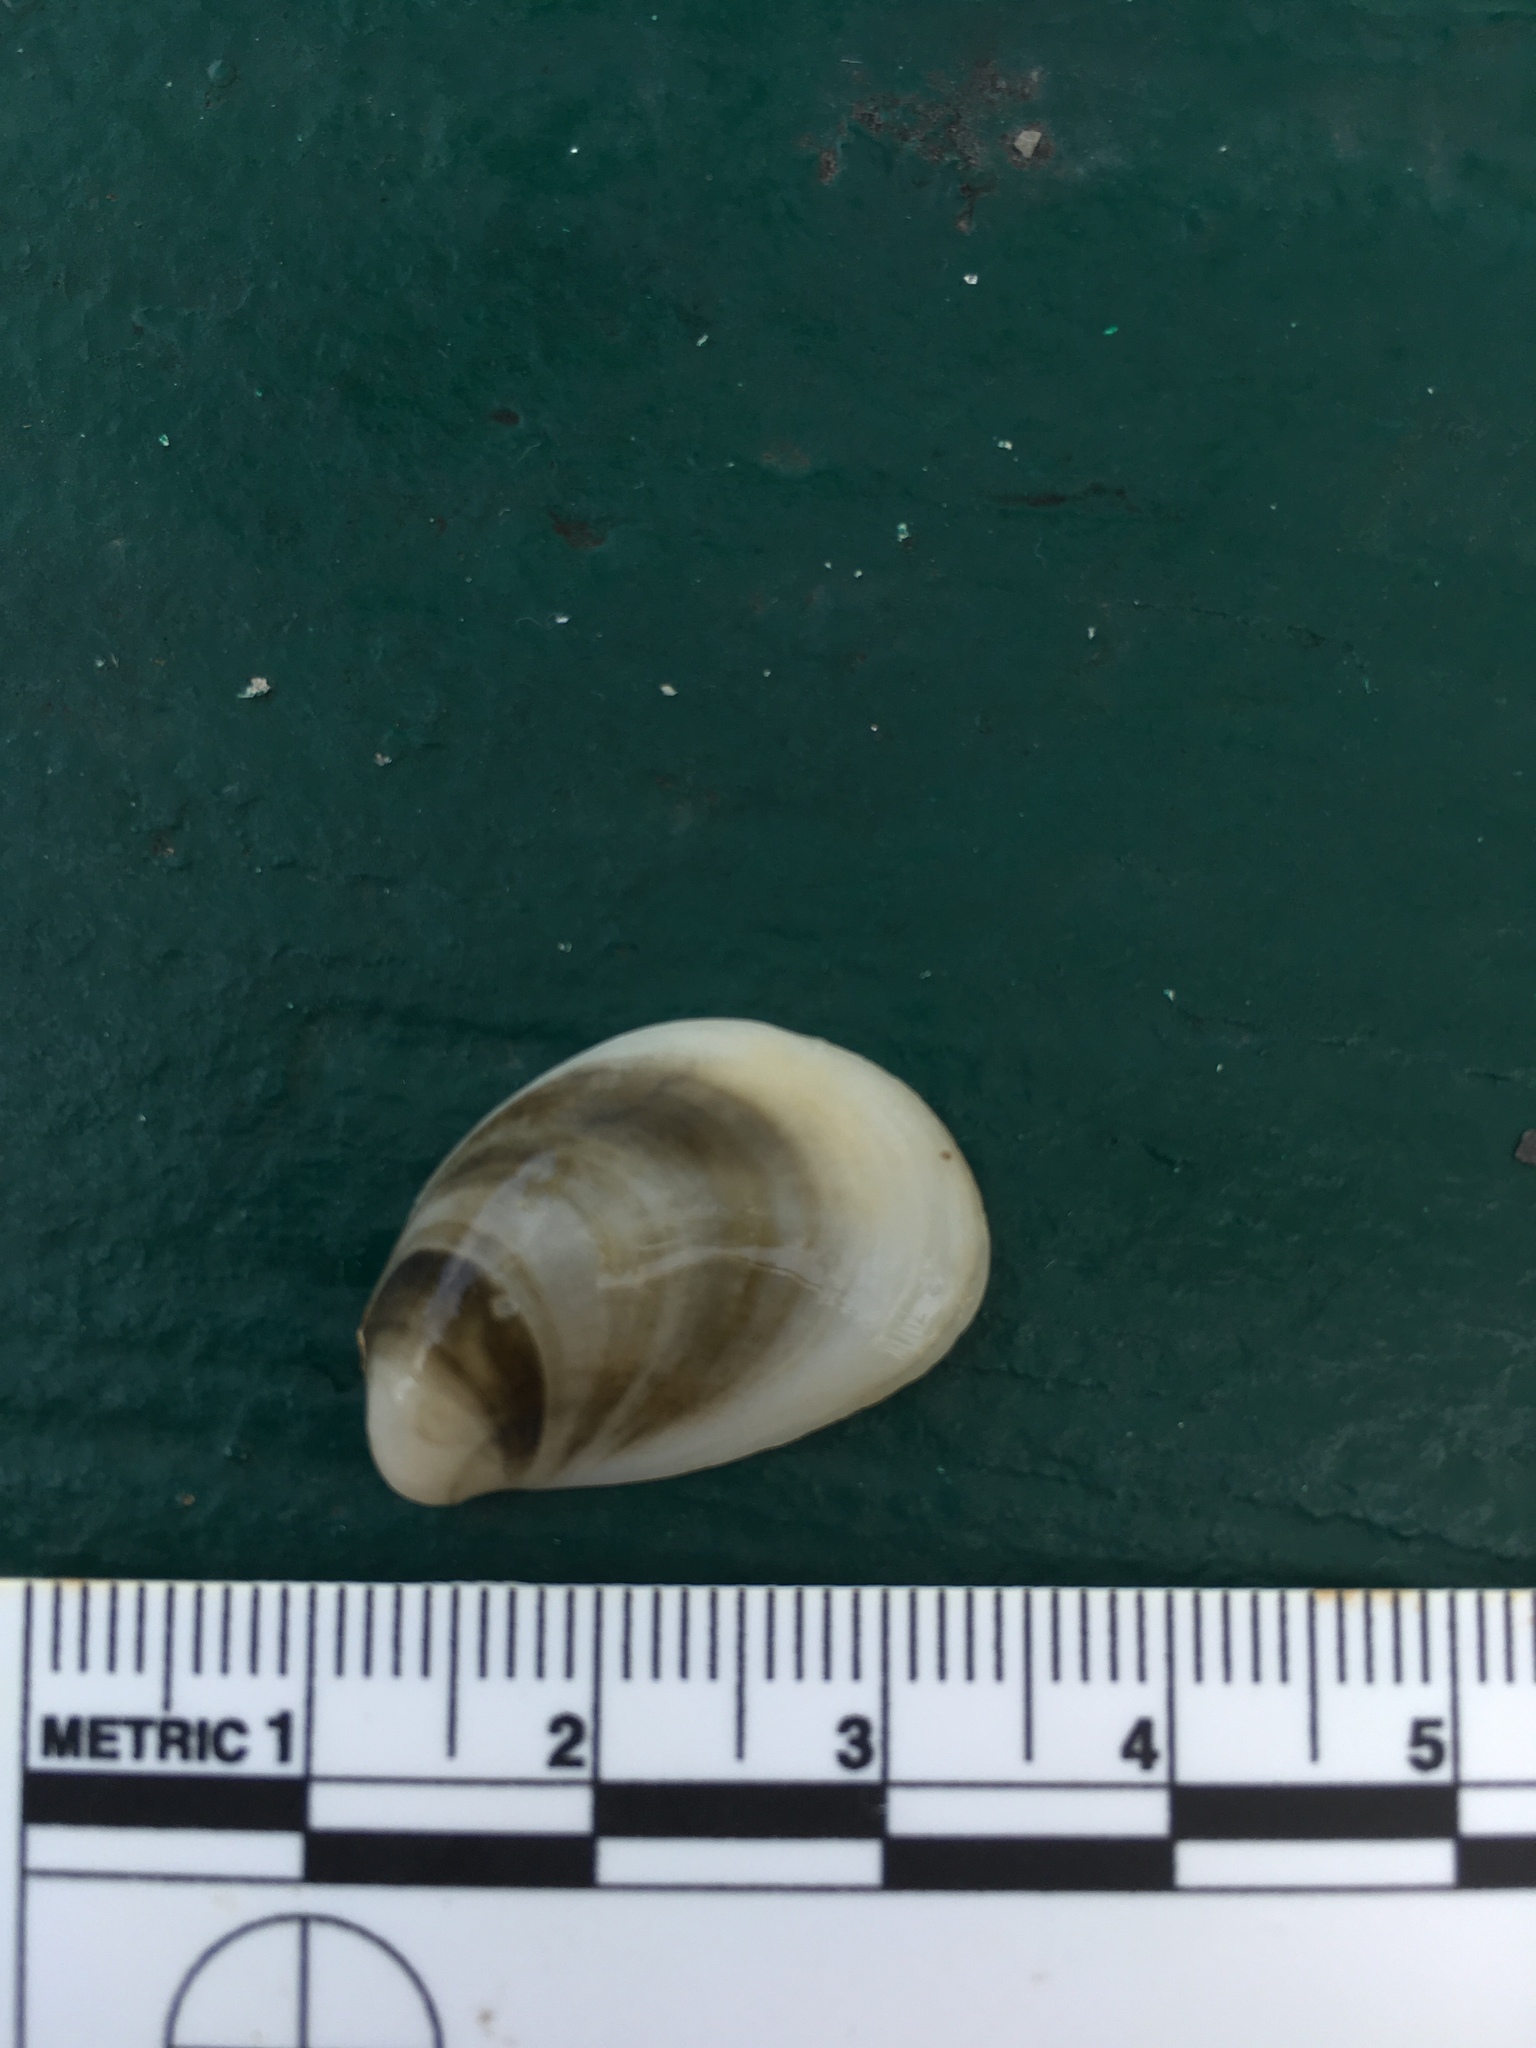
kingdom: Animalia
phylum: Mollusca
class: Gastropoda
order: Littorinimorpha
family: Calyptraeidae
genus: Crepidula
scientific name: Crepidula fornicata
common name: Slipper limpet
